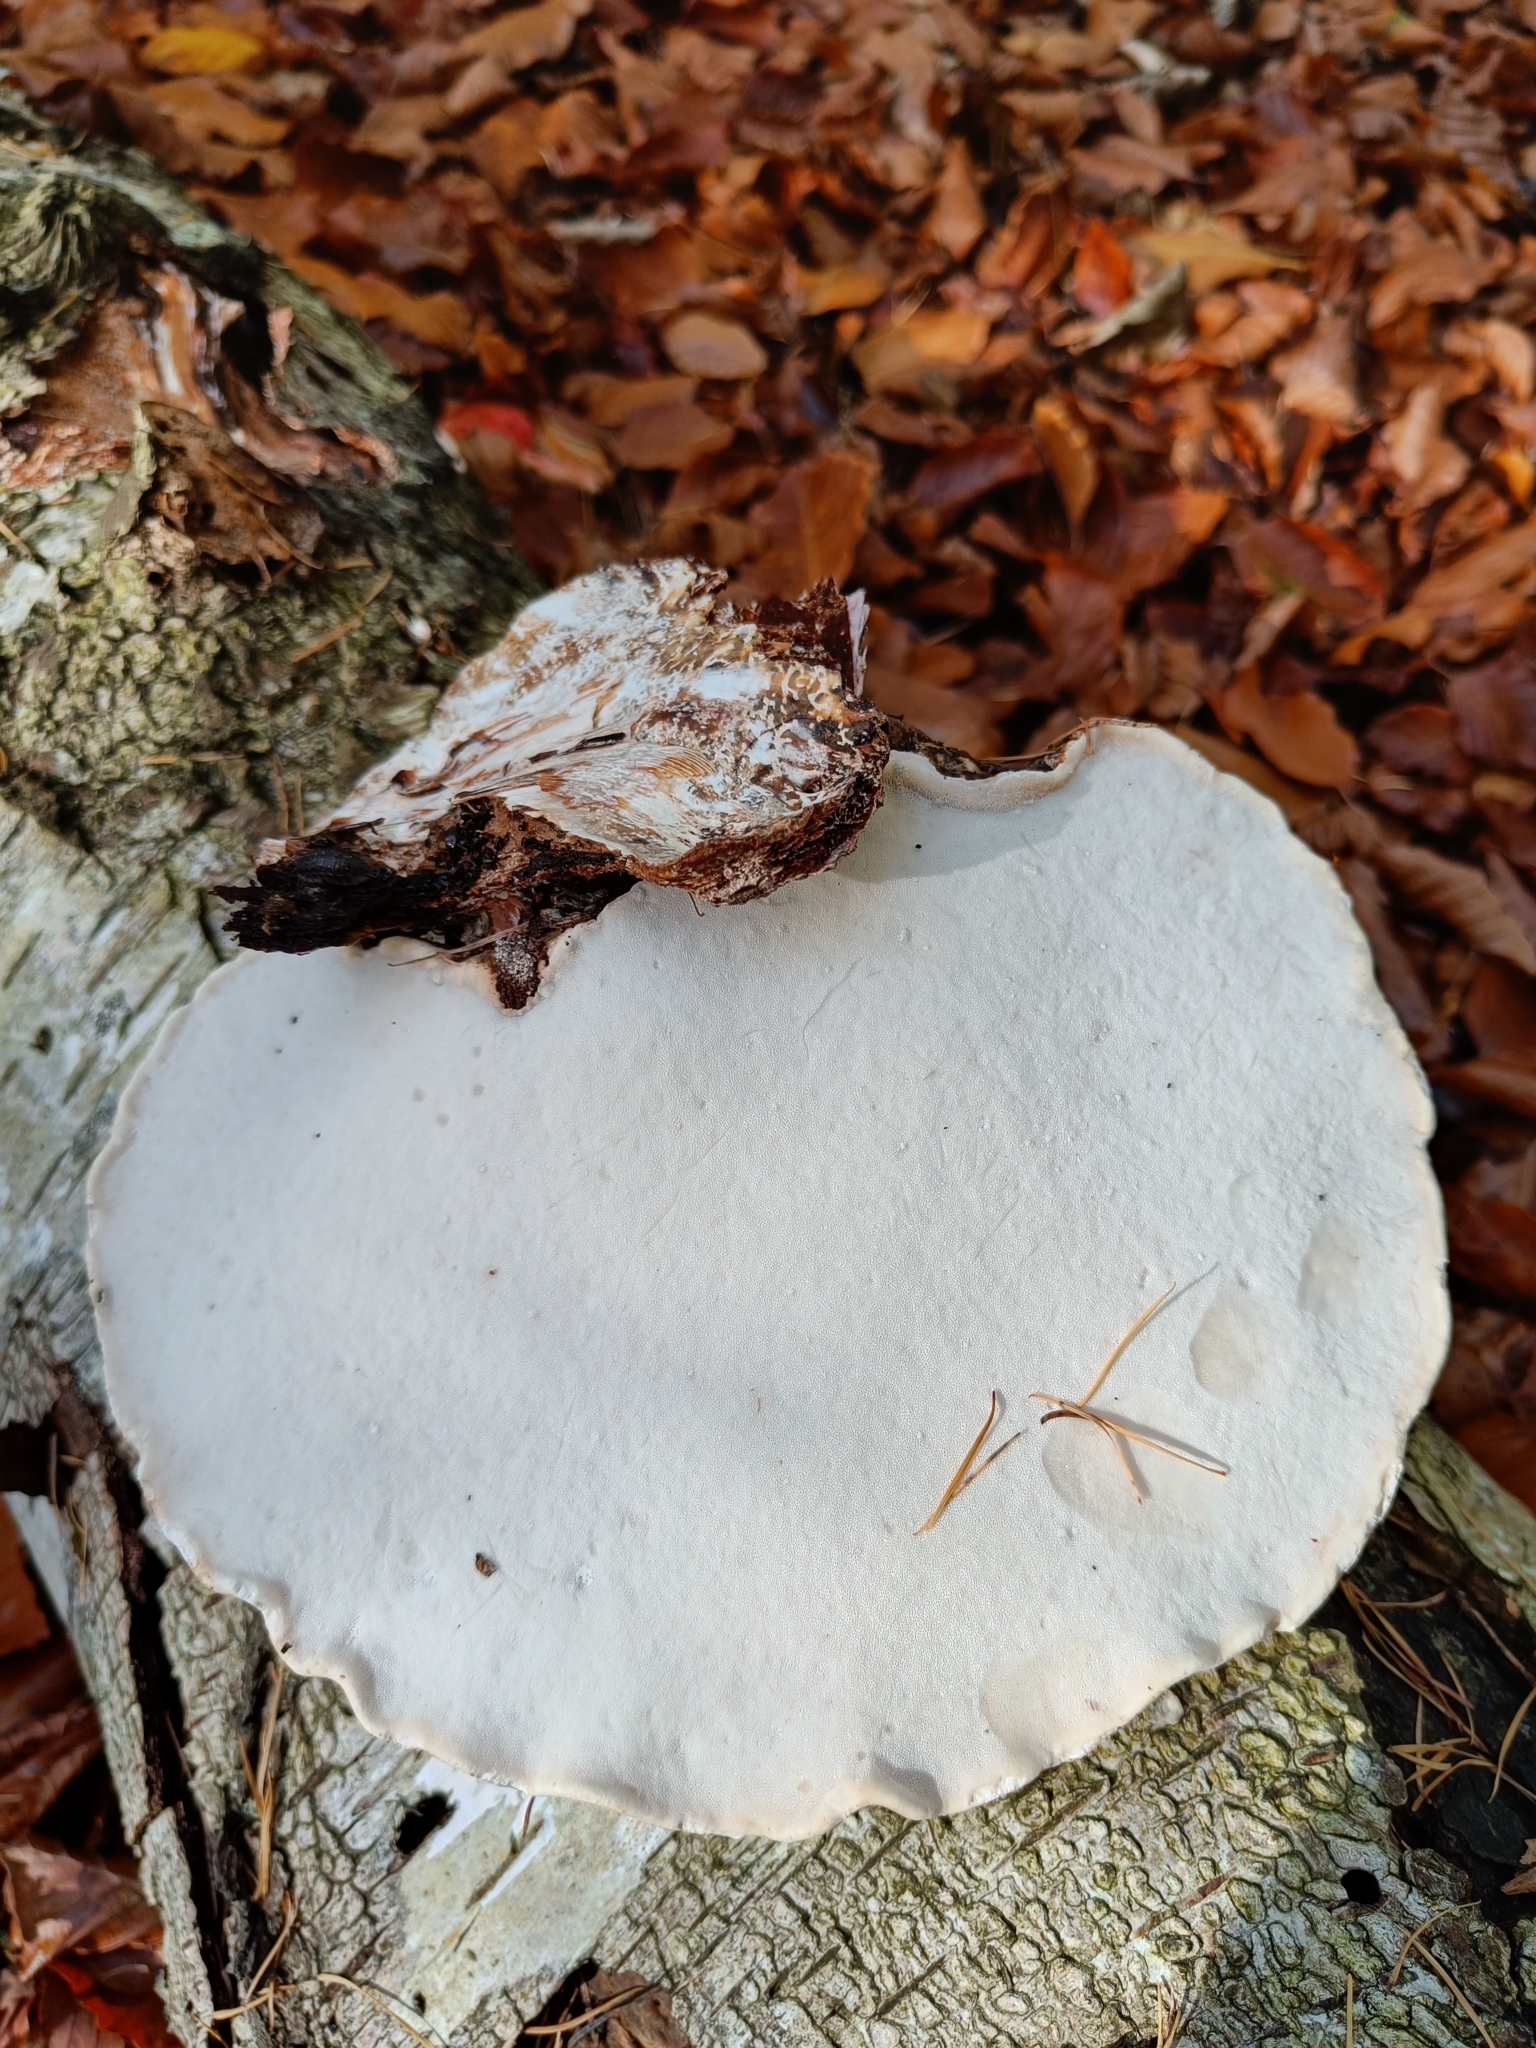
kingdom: Fungi
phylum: Basidiomycota
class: Agaricomycetes
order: Polyporales
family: Fomitopsidaceae
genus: Fomitopsis
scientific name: Fomitopsis betulina
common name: Birch polypore
